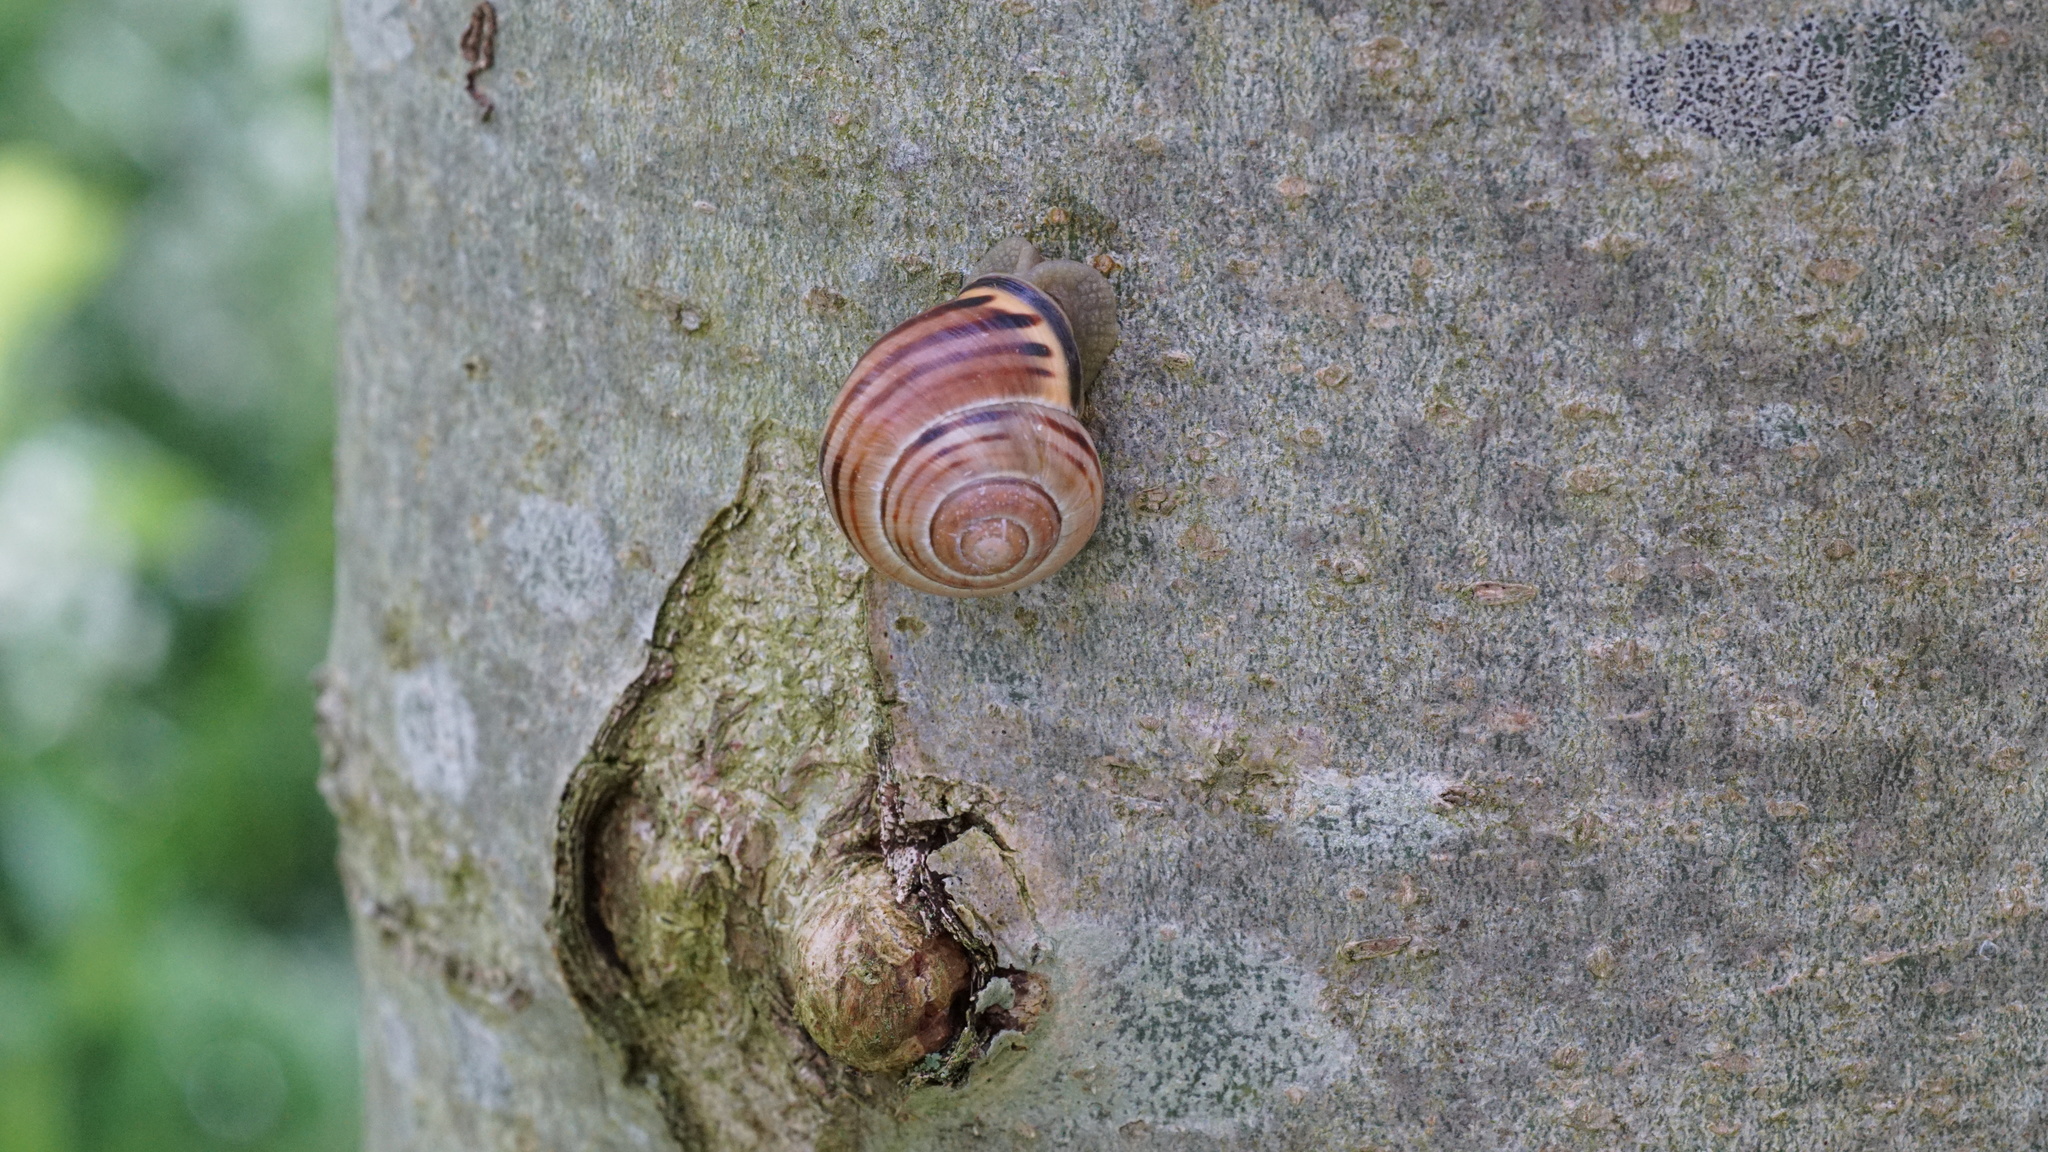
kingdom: Animalia
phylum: Mollusca
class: Gastropoda
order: Stylommatophora
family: Helicidae
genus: Cepaea
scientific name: Cepaea nemoralis
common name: Grovesnail
